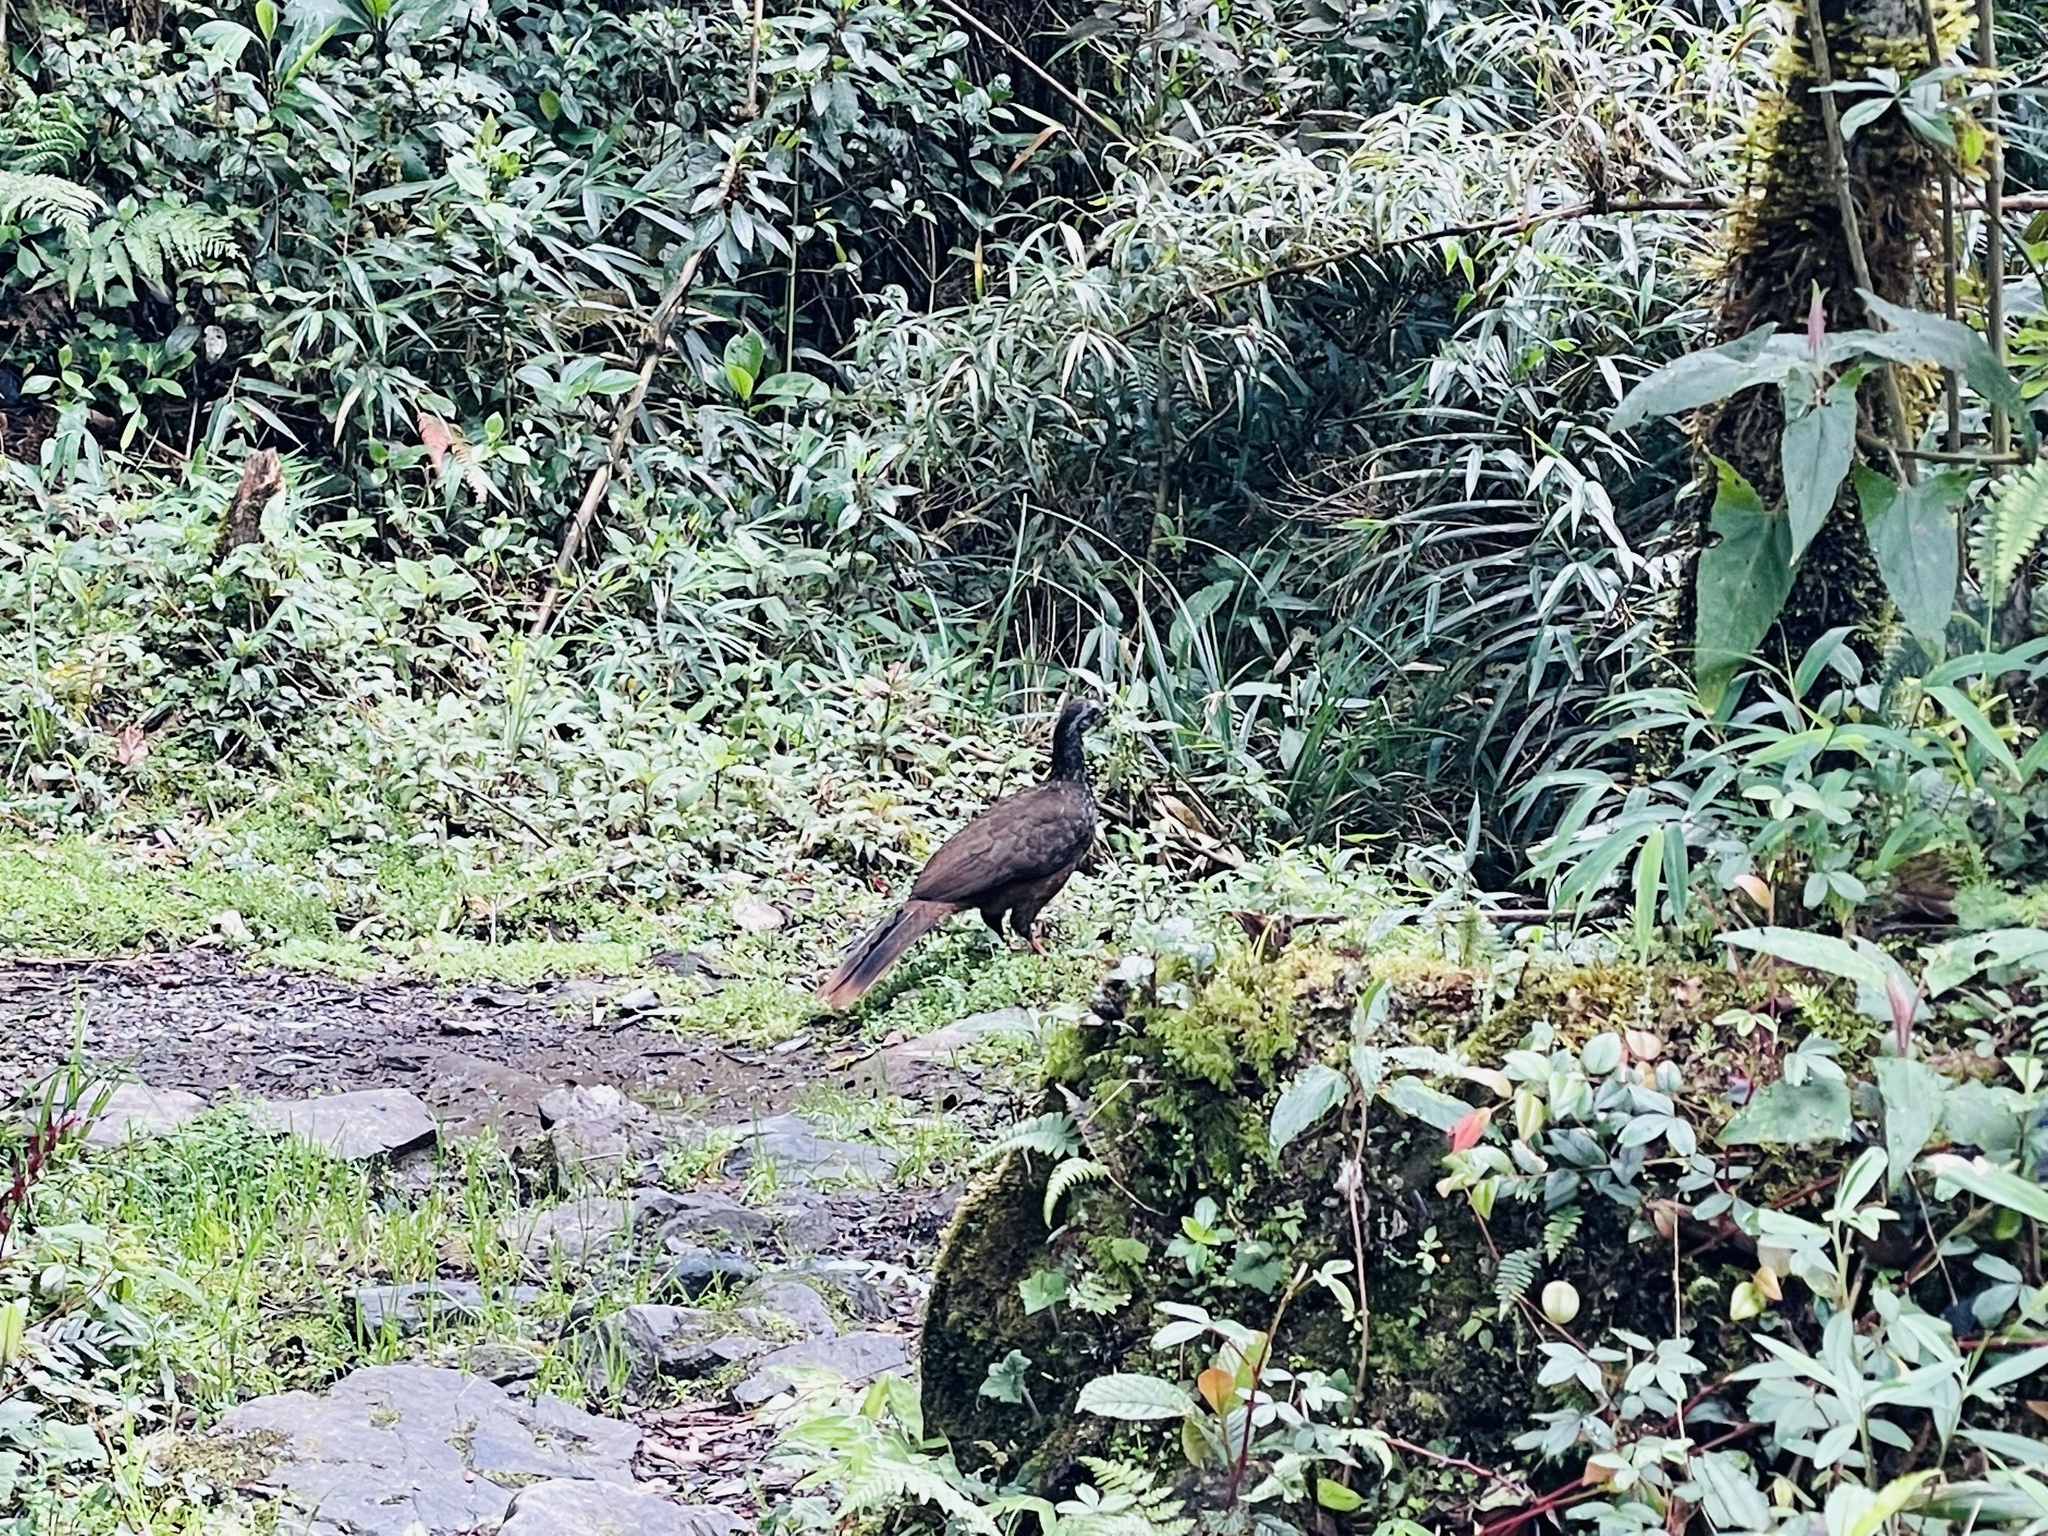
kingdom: Animalia
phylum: Chordata
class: Aves
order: Galliformes
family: Cracidae
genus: Penelope
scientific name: Penelope barbata
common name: Bearded guan
